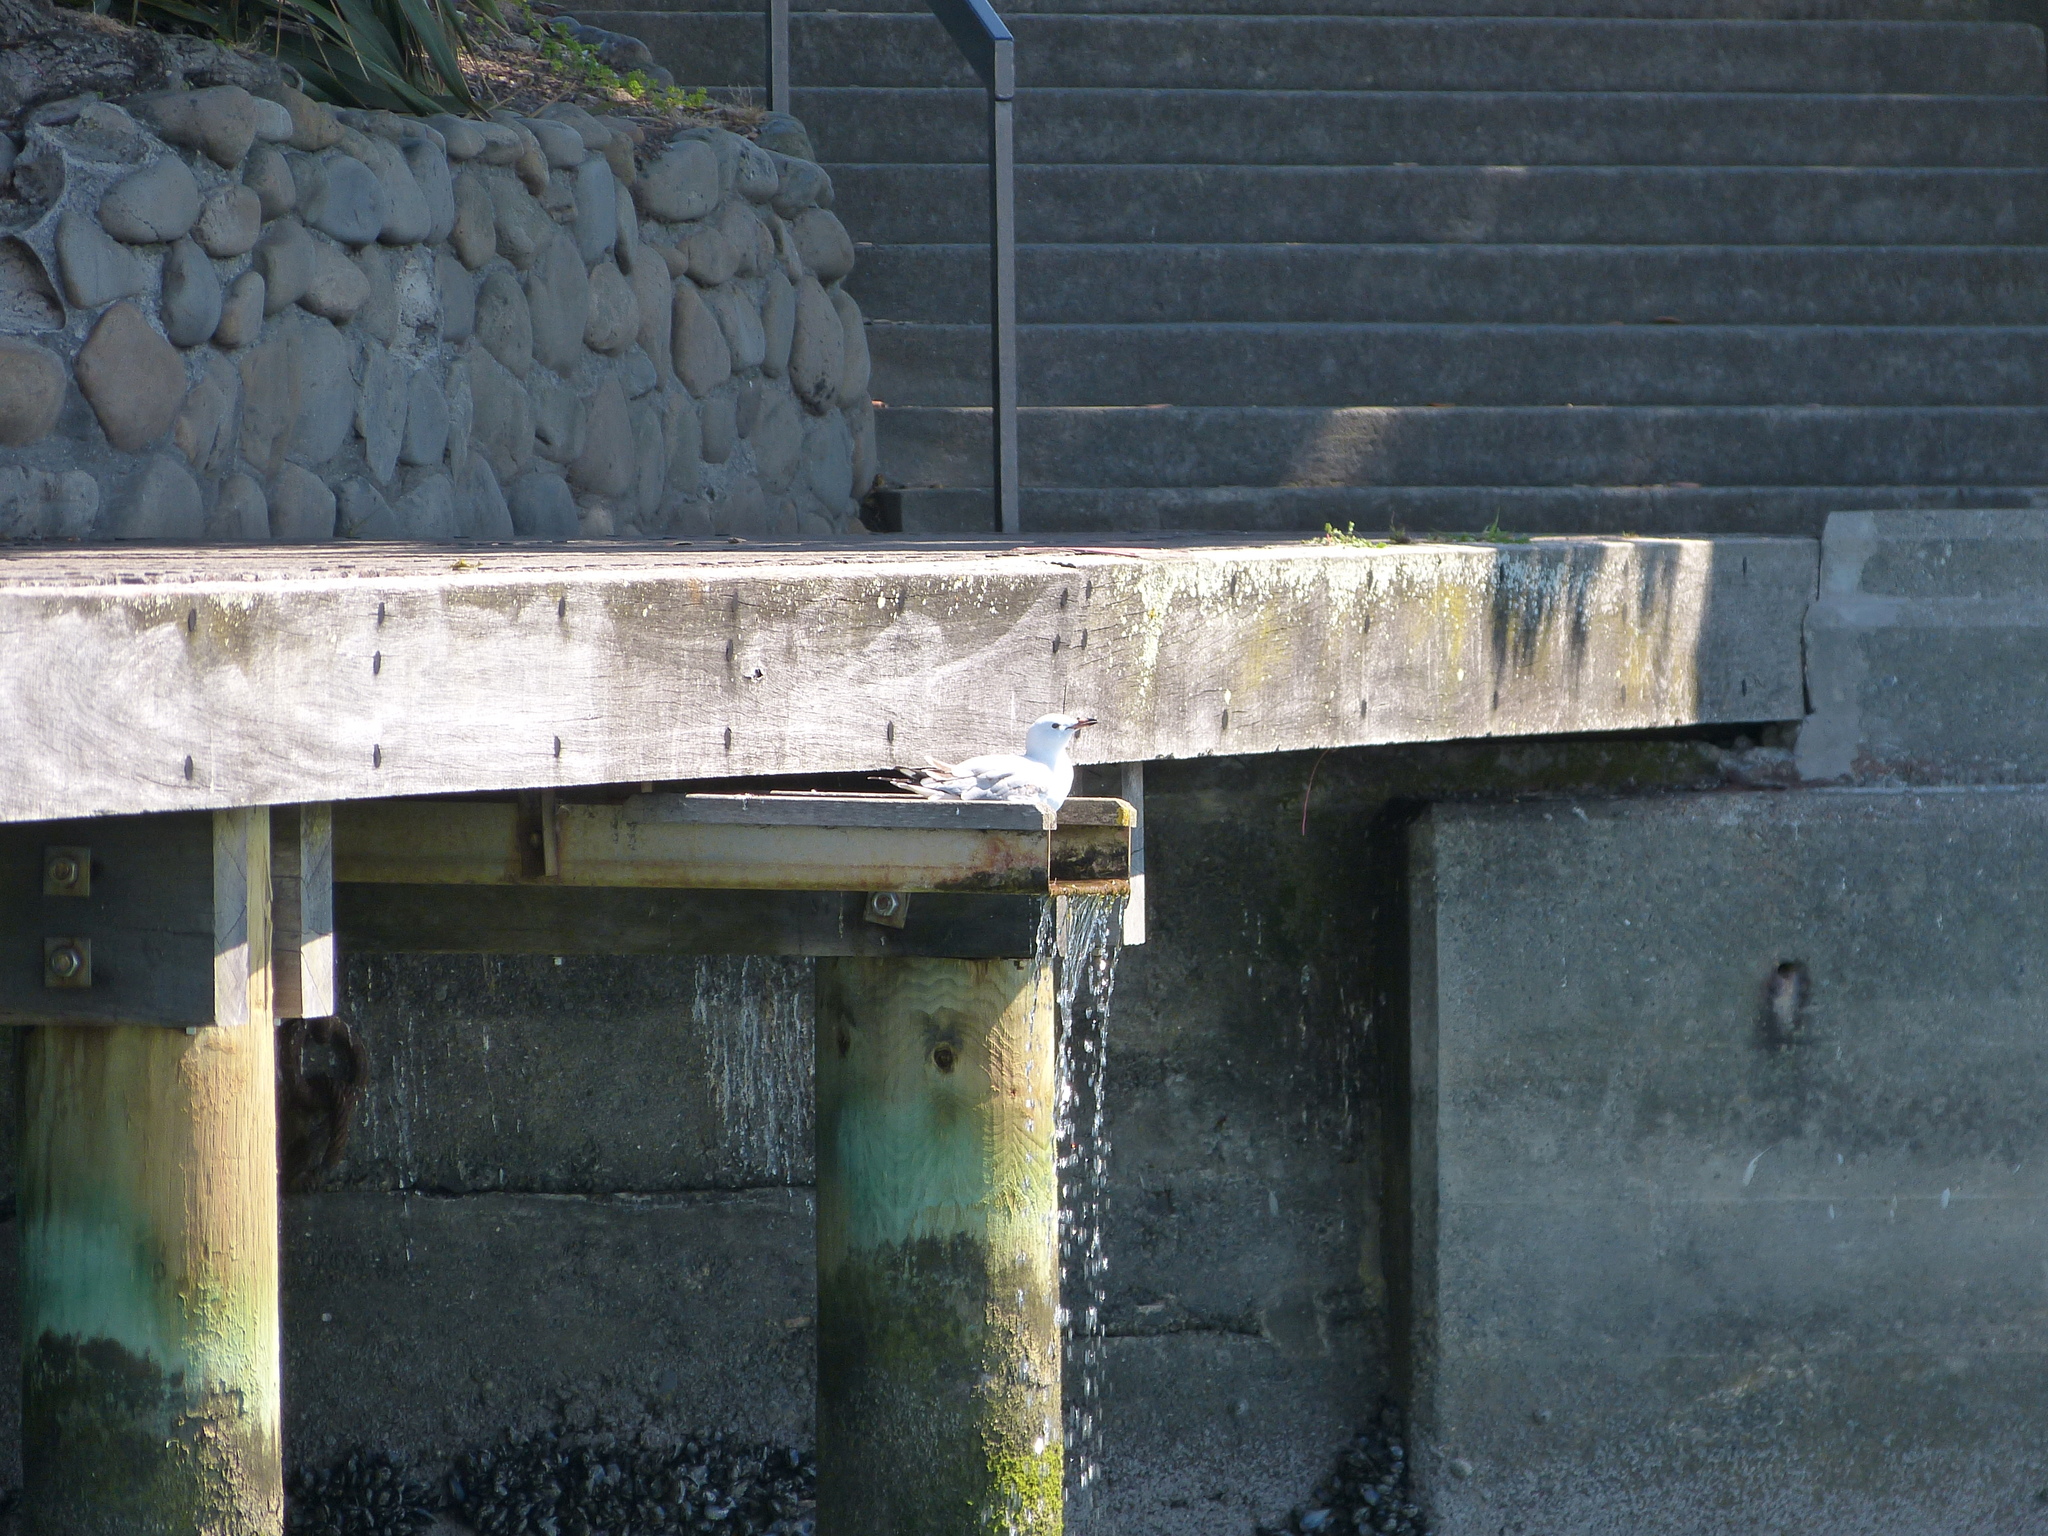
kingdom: Animalia
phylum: Chordata
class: Aves
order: Charadriiformes
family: Laridae
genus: Chroicocephalus
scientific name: Chroicocephalus novaehollandiae
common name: Silver gull
